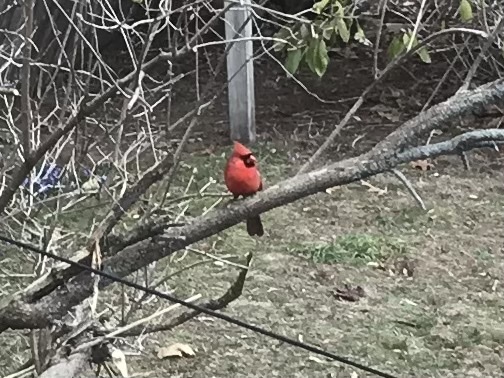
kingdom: Animalia
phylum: Chordata
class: Aves
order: Passeriformes
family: Cardinalidae
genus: Cardinalis
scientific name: Cardinalis cardinalis
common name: Northern cardinal
